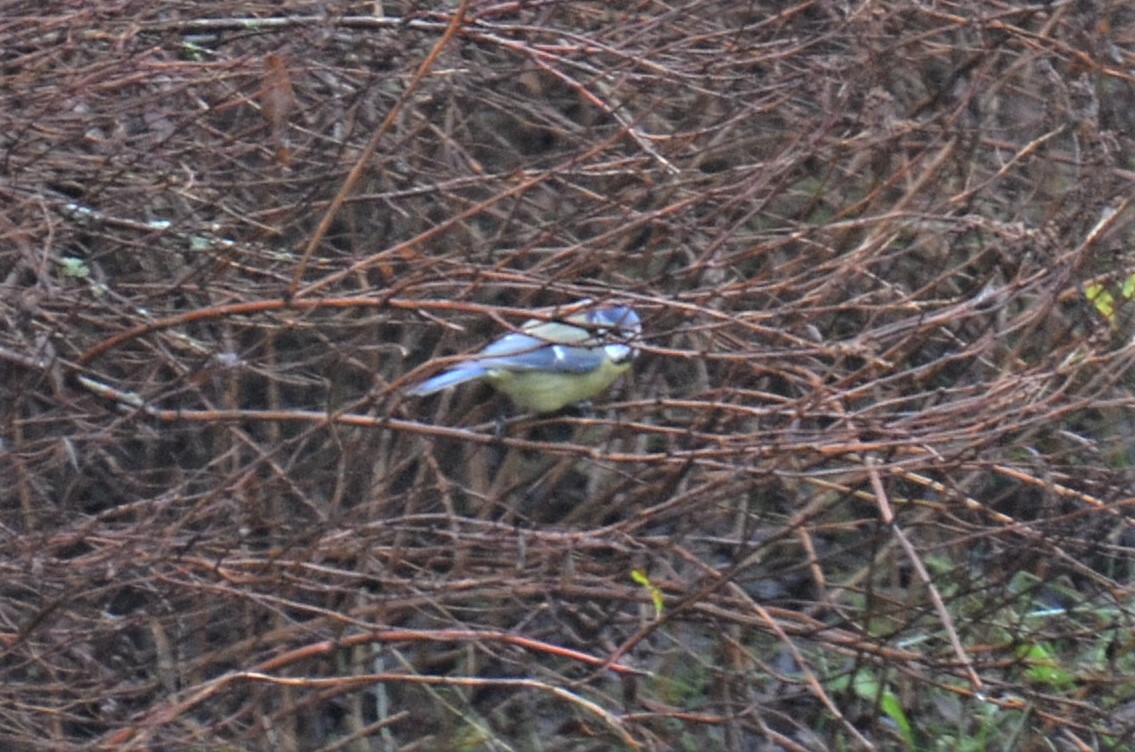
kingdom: Animalia
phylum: Chordata
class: Aves
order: Passeriformes
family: Paridae
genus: Cyanistes
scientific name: Cyanistes caeruleus
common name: Eurasian blue tit
